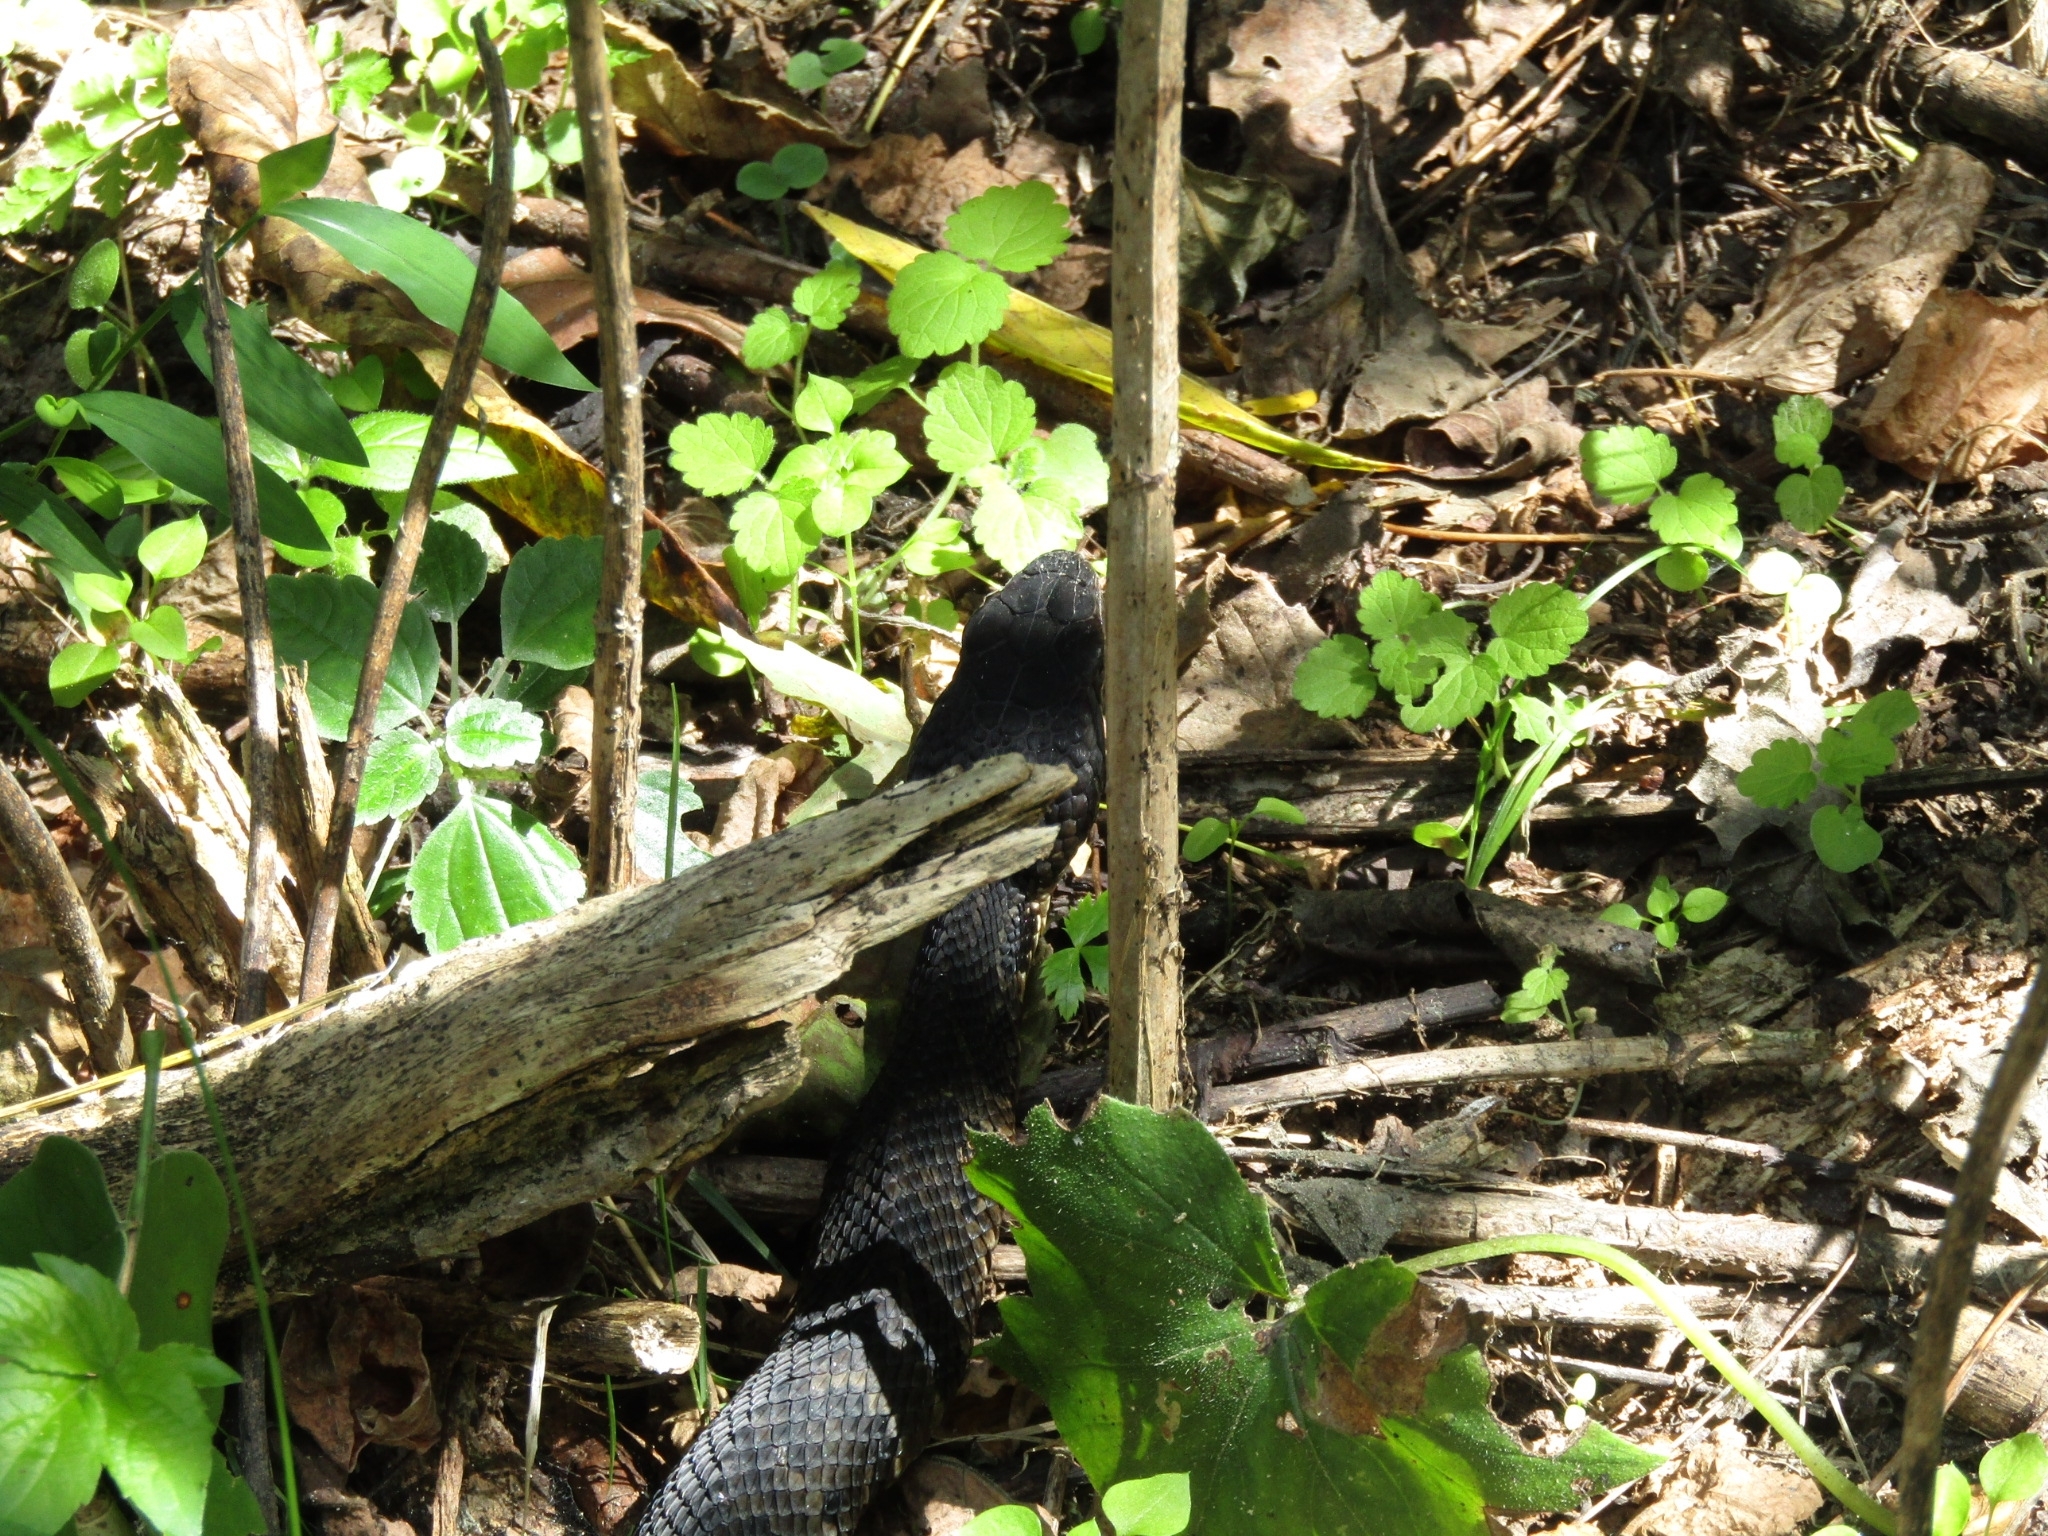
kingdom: Animalia
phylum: Chordata
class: Squamata
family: Viperidae
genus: Agkistrodon
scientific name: Agkistrodon piscivorus
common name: Cottonmouth
